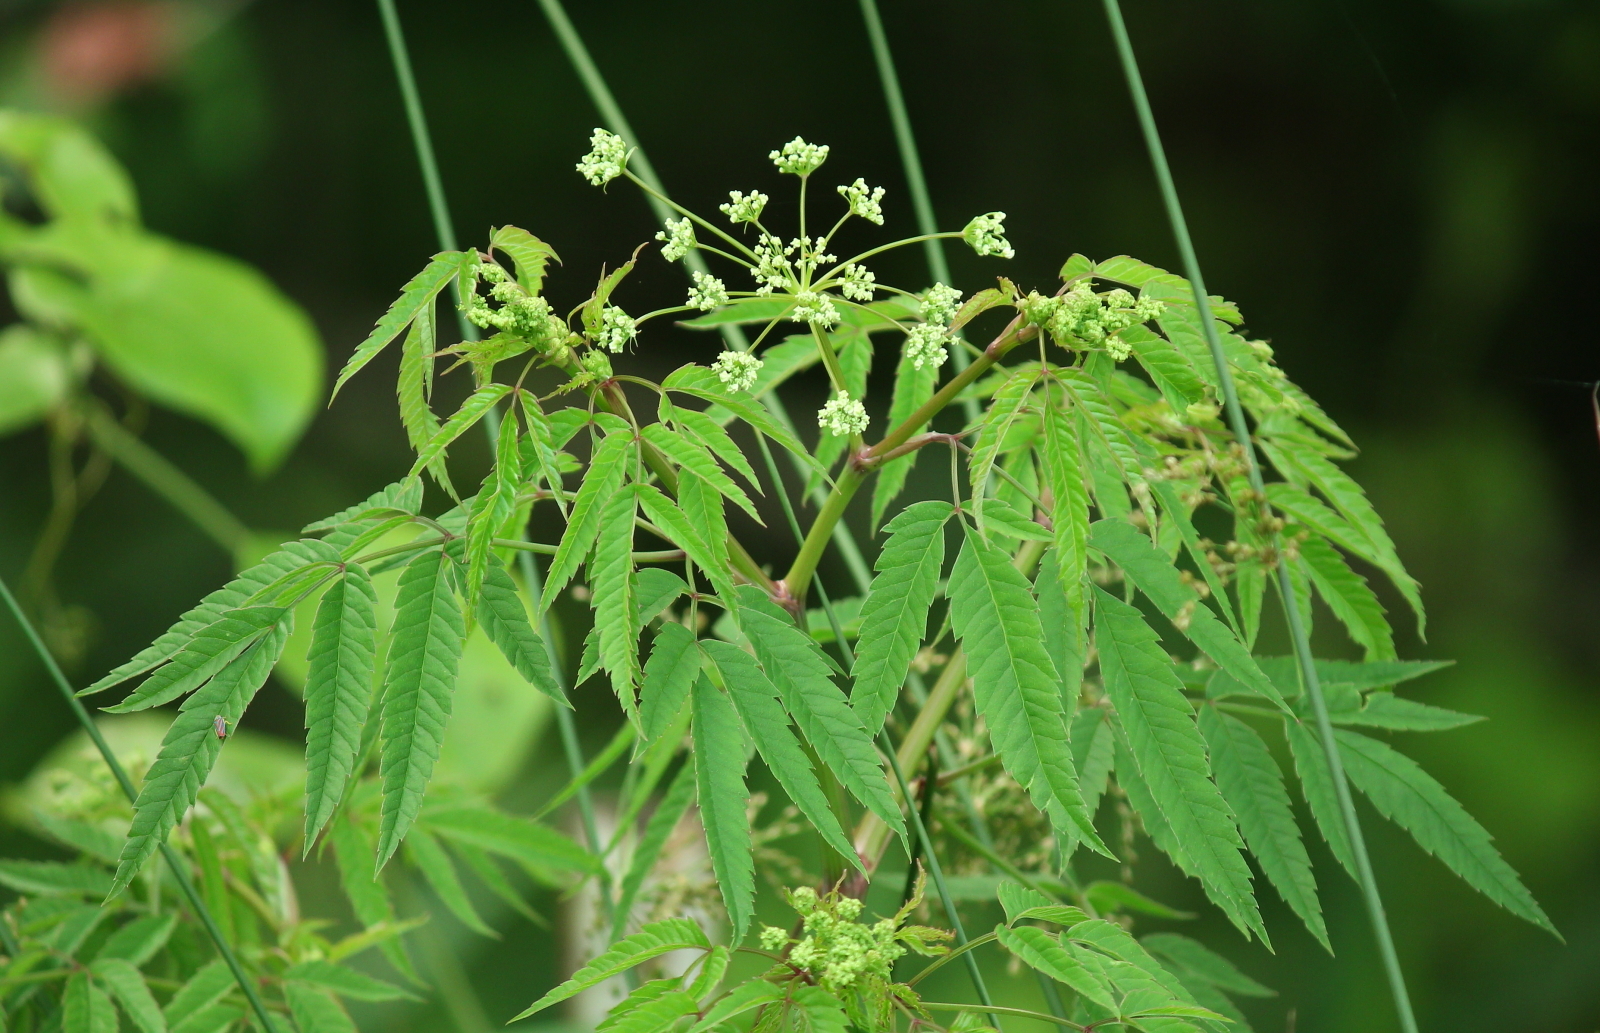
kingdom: Plantae
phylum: Tracheophyta
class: Magnoliopsida
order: Apiales
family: Apiaceae
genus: Cicuta
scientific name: Cicuta maculata
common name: Spotted cowbane
